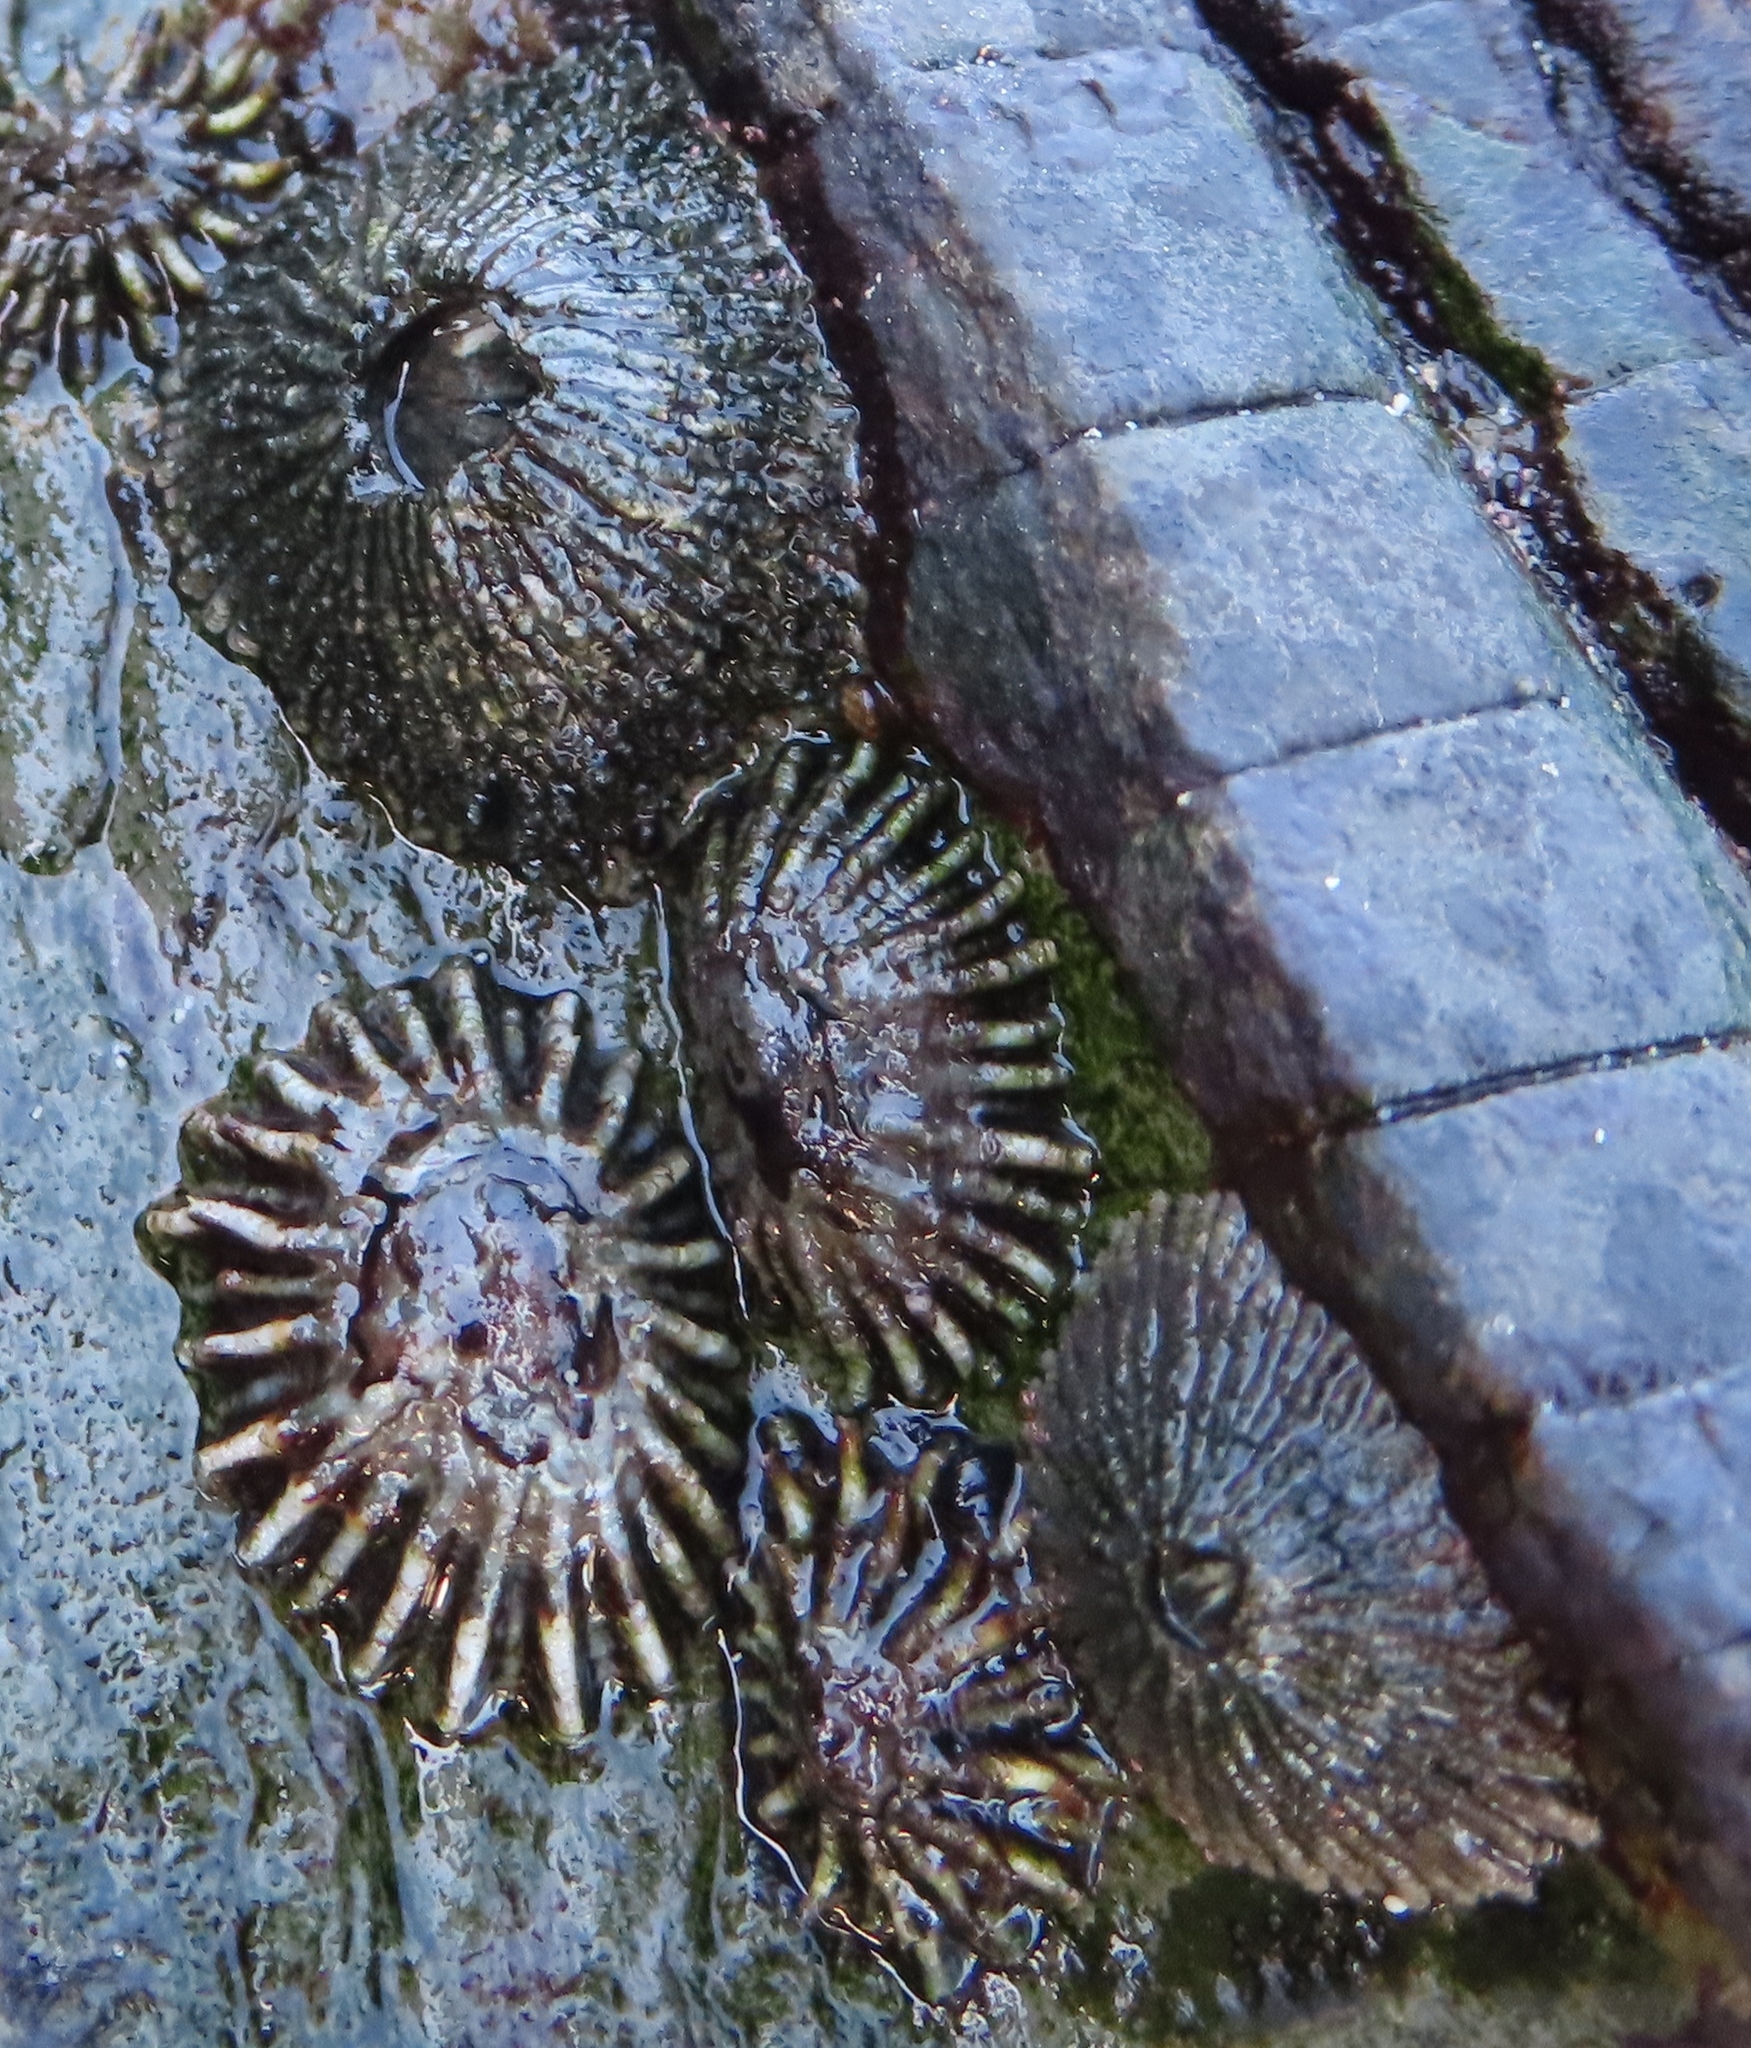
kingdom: Animalia
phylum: Arthropoda
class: Maxillopoda
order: Sessilia
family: Tetraclitidae
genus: Tetraclita
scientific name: Tetraclita serrata
